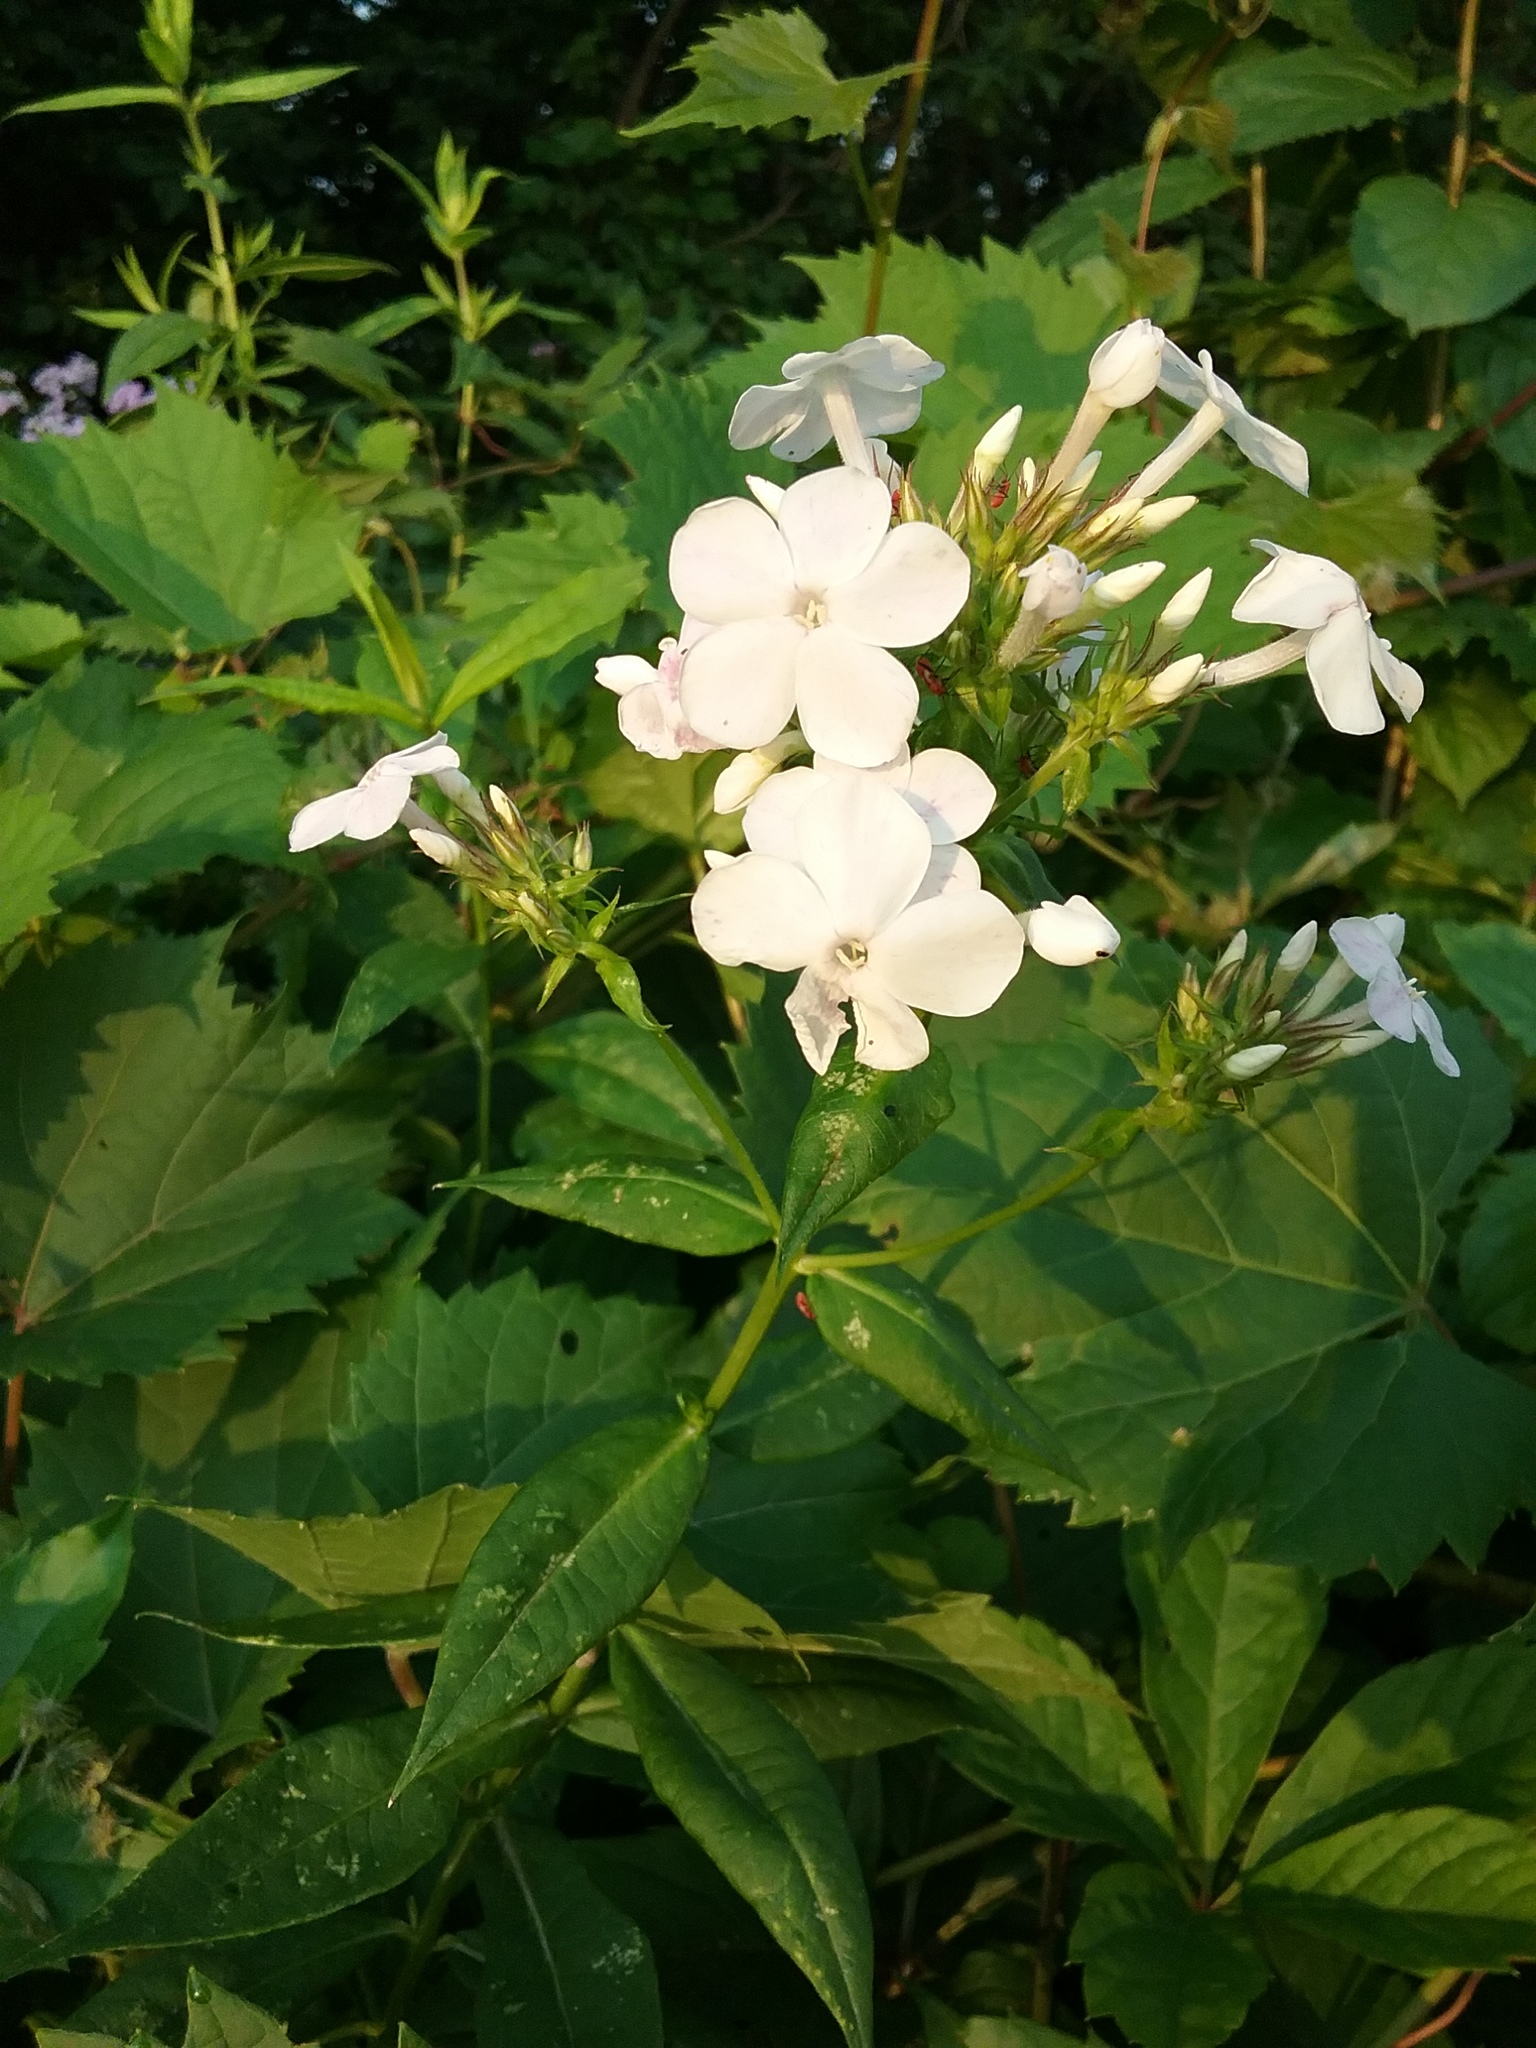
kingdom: Plantae
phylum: Tracheophyta
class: Magnoliopsida
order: Ericales
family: Polemoniaceae
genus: Phlox
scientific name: Phlox paniculata
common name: Fall phlox
